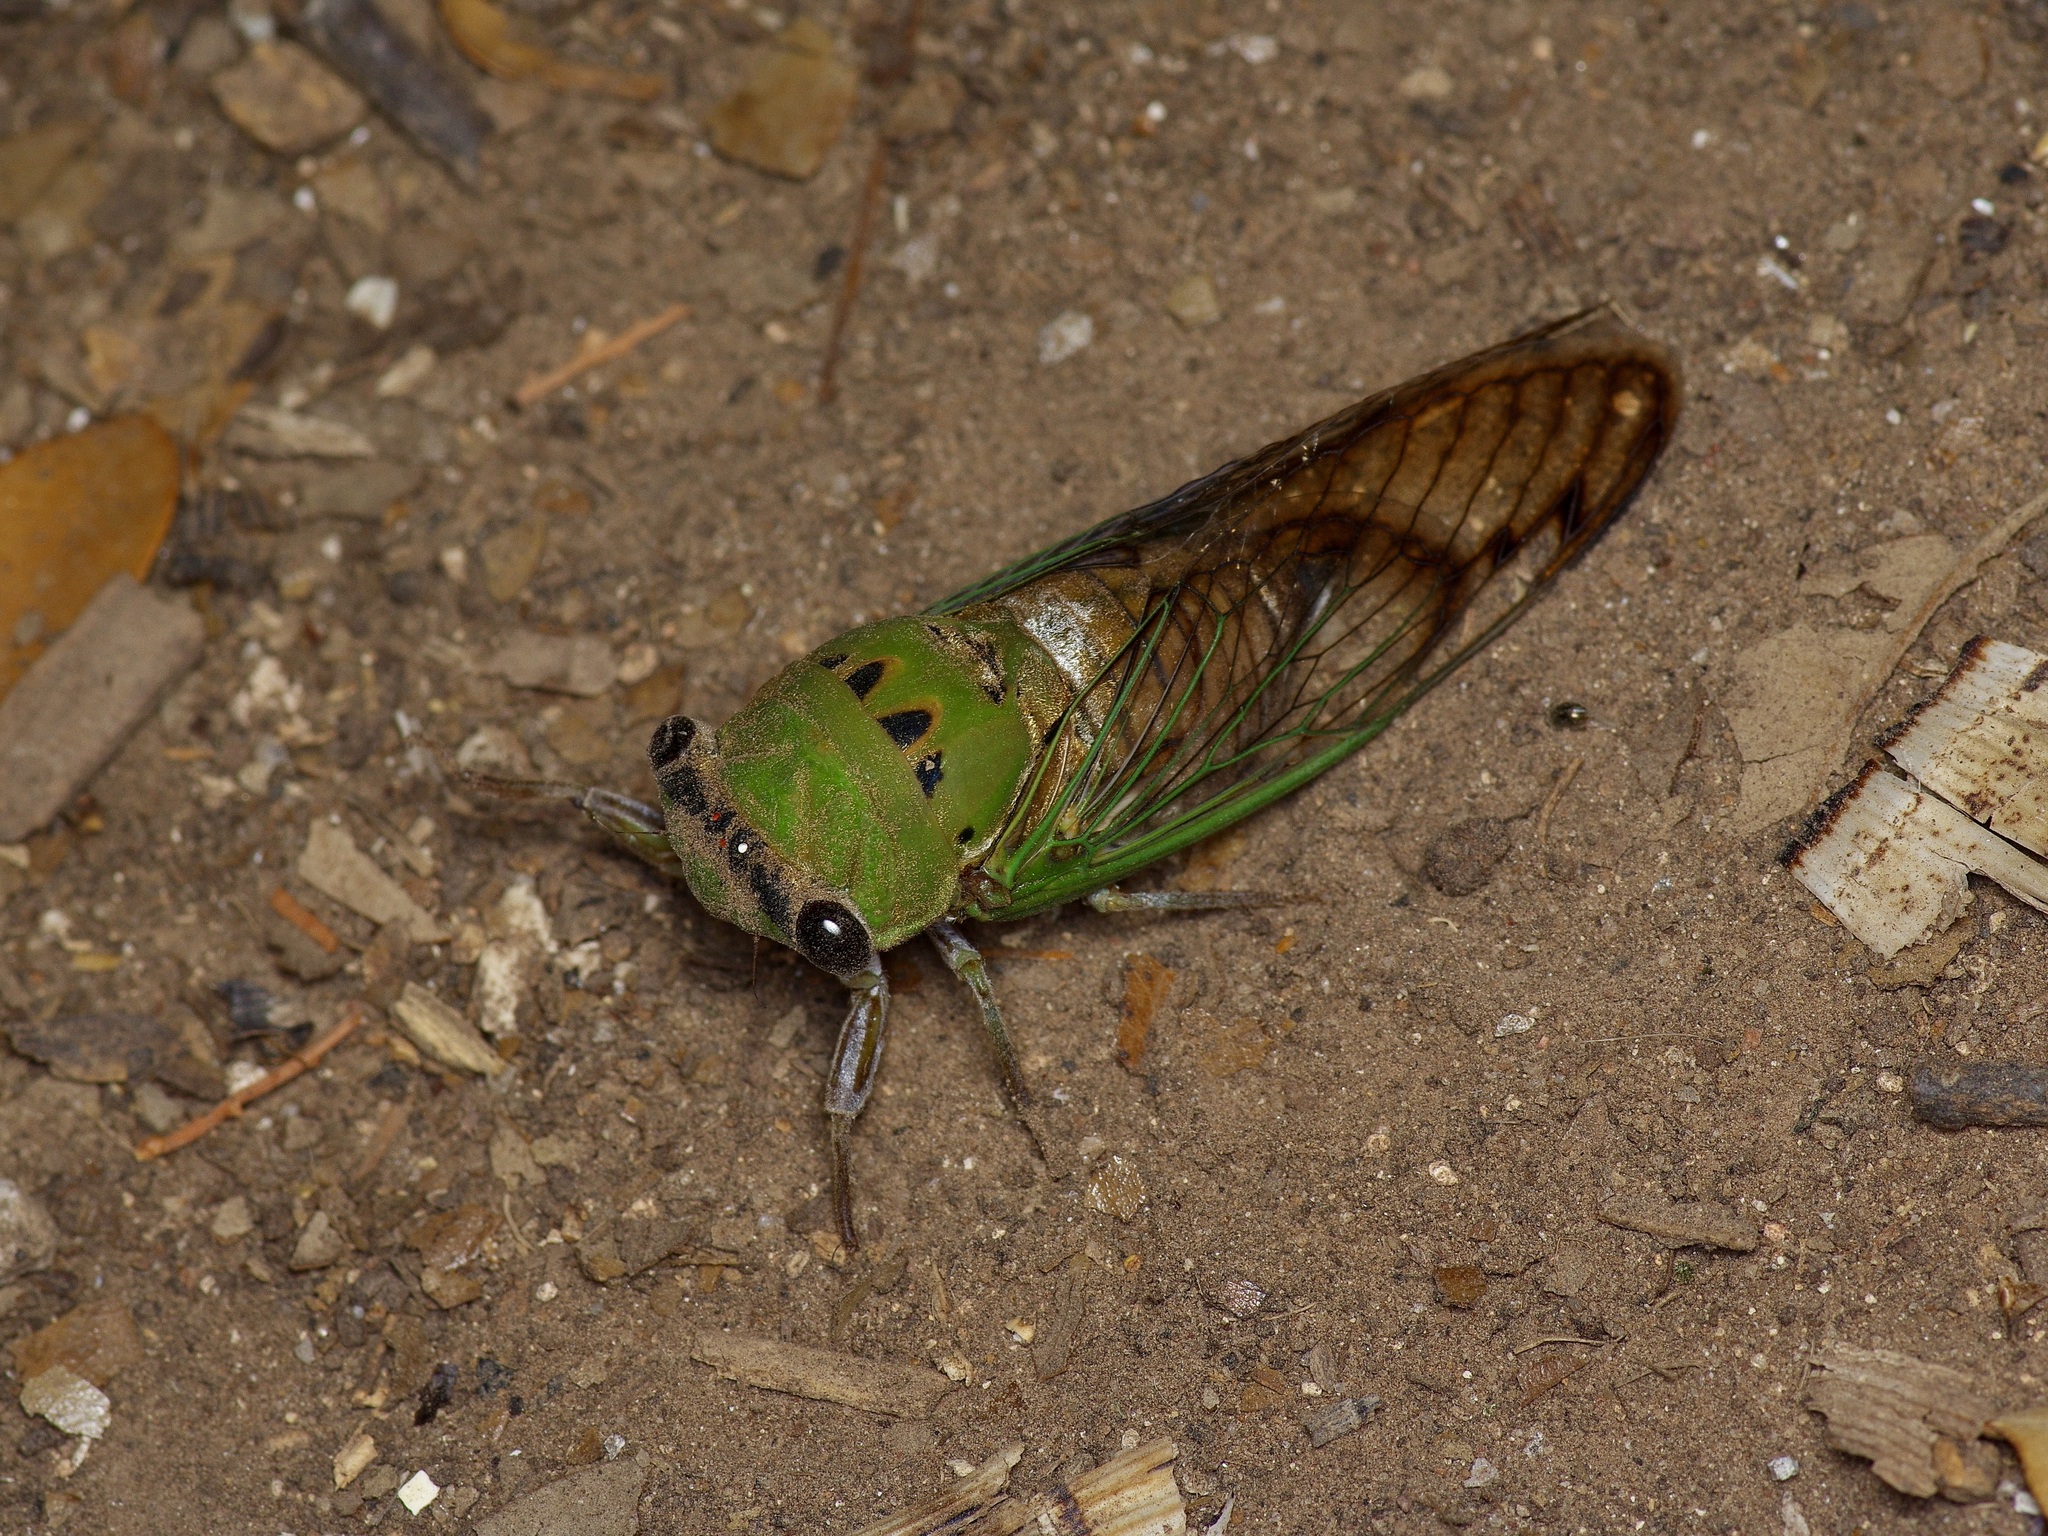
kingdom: Animalia
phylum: Arthropoda
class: Insecta
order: Hemiptera
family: Cicadidae
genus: Neotibicen
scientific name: Neotibicen superbus
